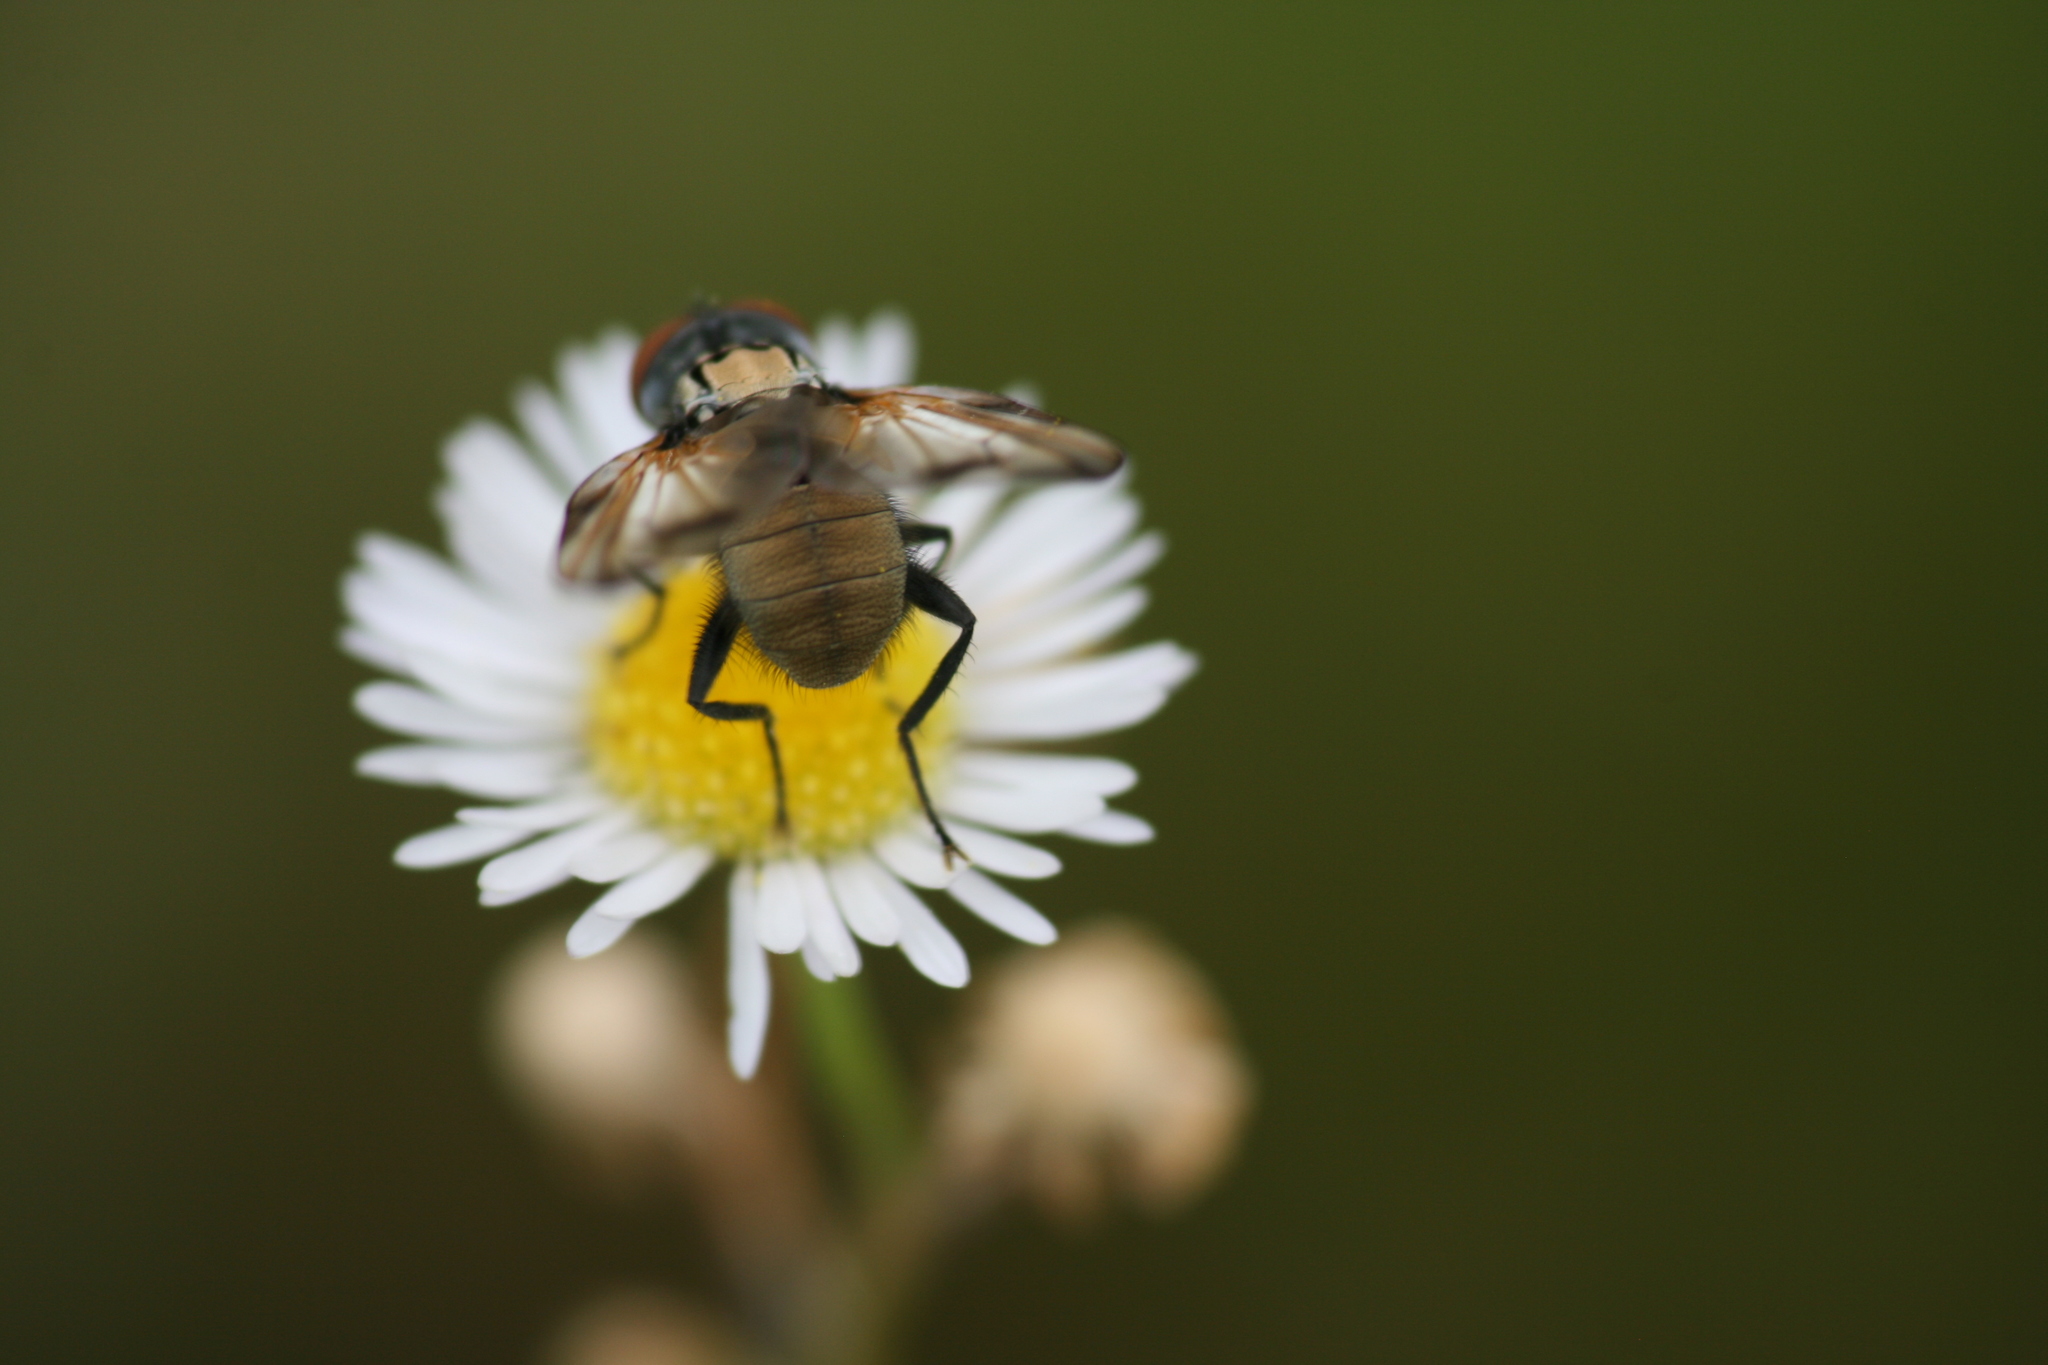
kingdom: Animalia
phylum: Arthropoda
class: Insecta
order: Diptera
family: Tachinidae
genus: Phasia
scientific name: Phasia obesa
